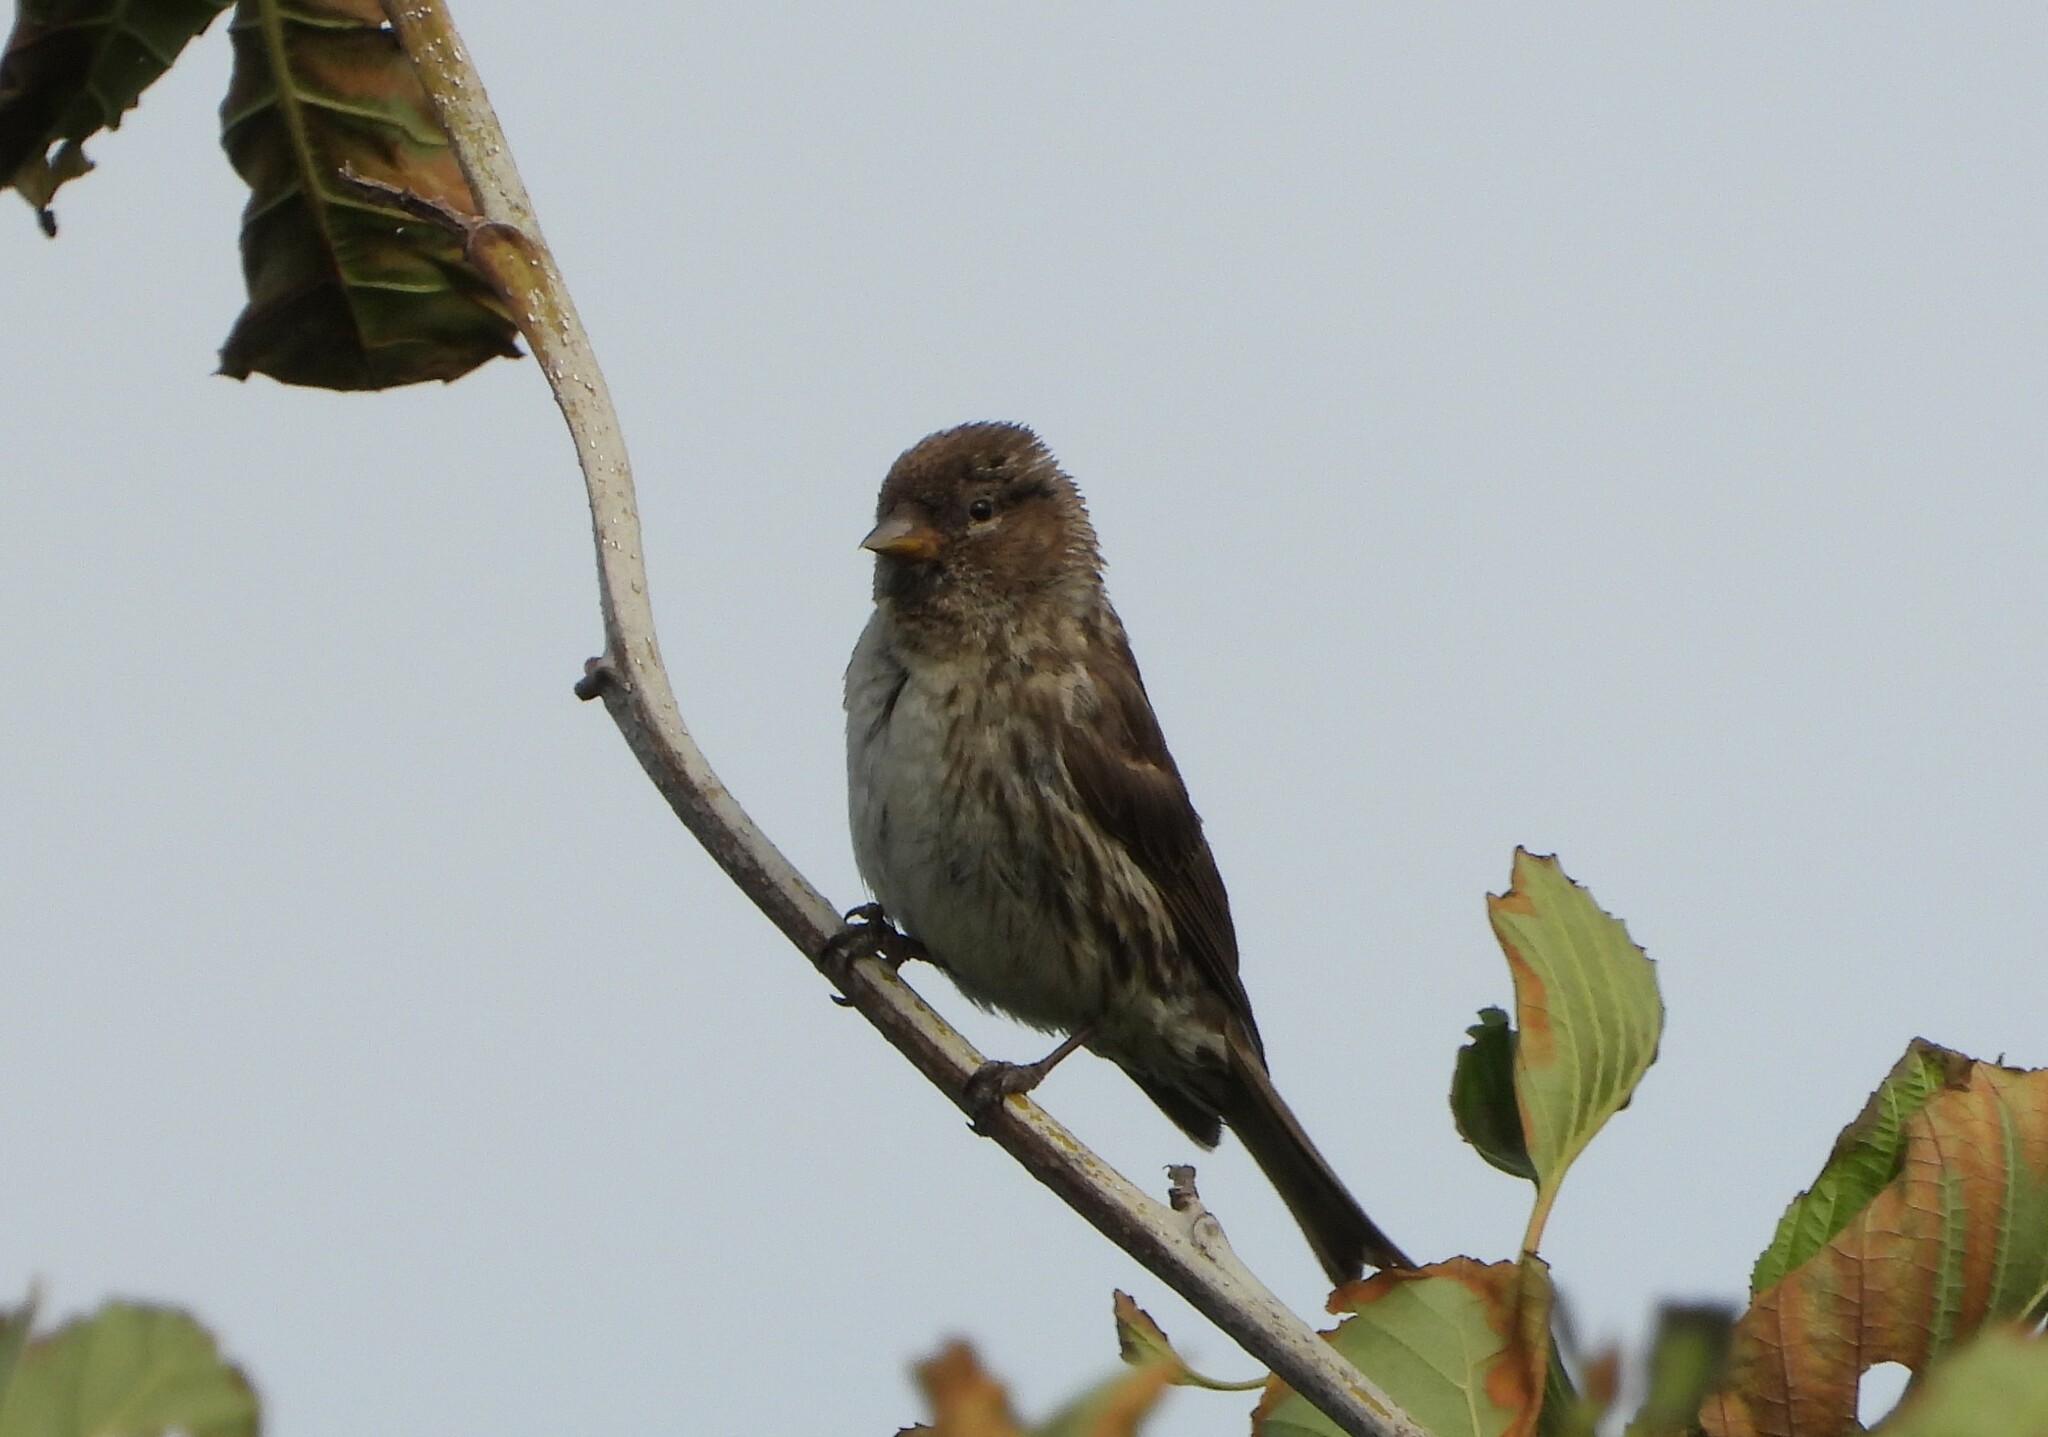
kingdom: Animalia
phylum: Chordata
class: Aves
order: Passeriformes
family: Fringillidae
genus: Acanthis
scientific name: Acanthis flammea
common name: Common redpoll
